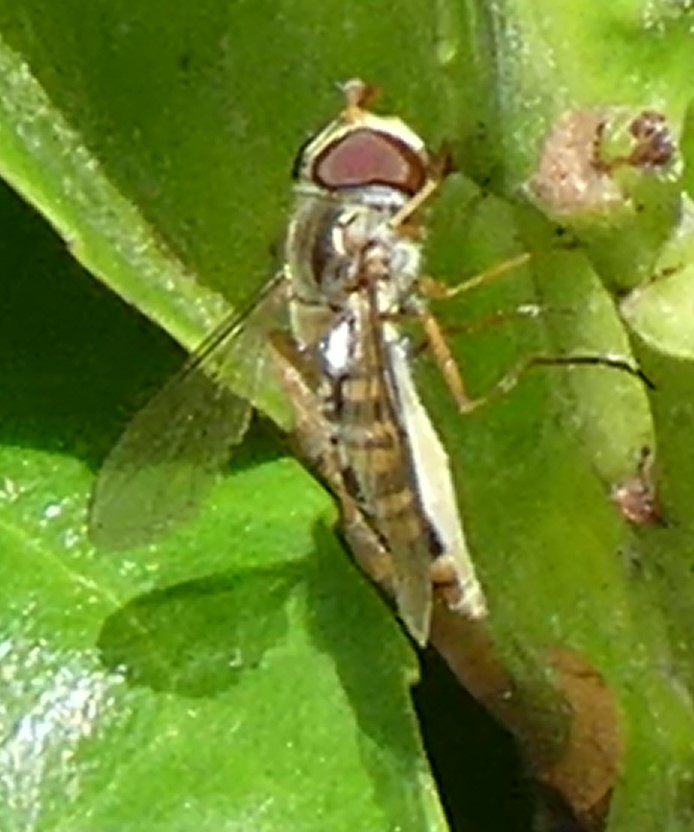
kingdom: Animalia
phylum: Arthropoda
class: Insecta
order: Diptera
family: Syrphidae
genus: Episyrphus
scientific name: Episyrphus balteatus
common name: Marmalade hoverfly
